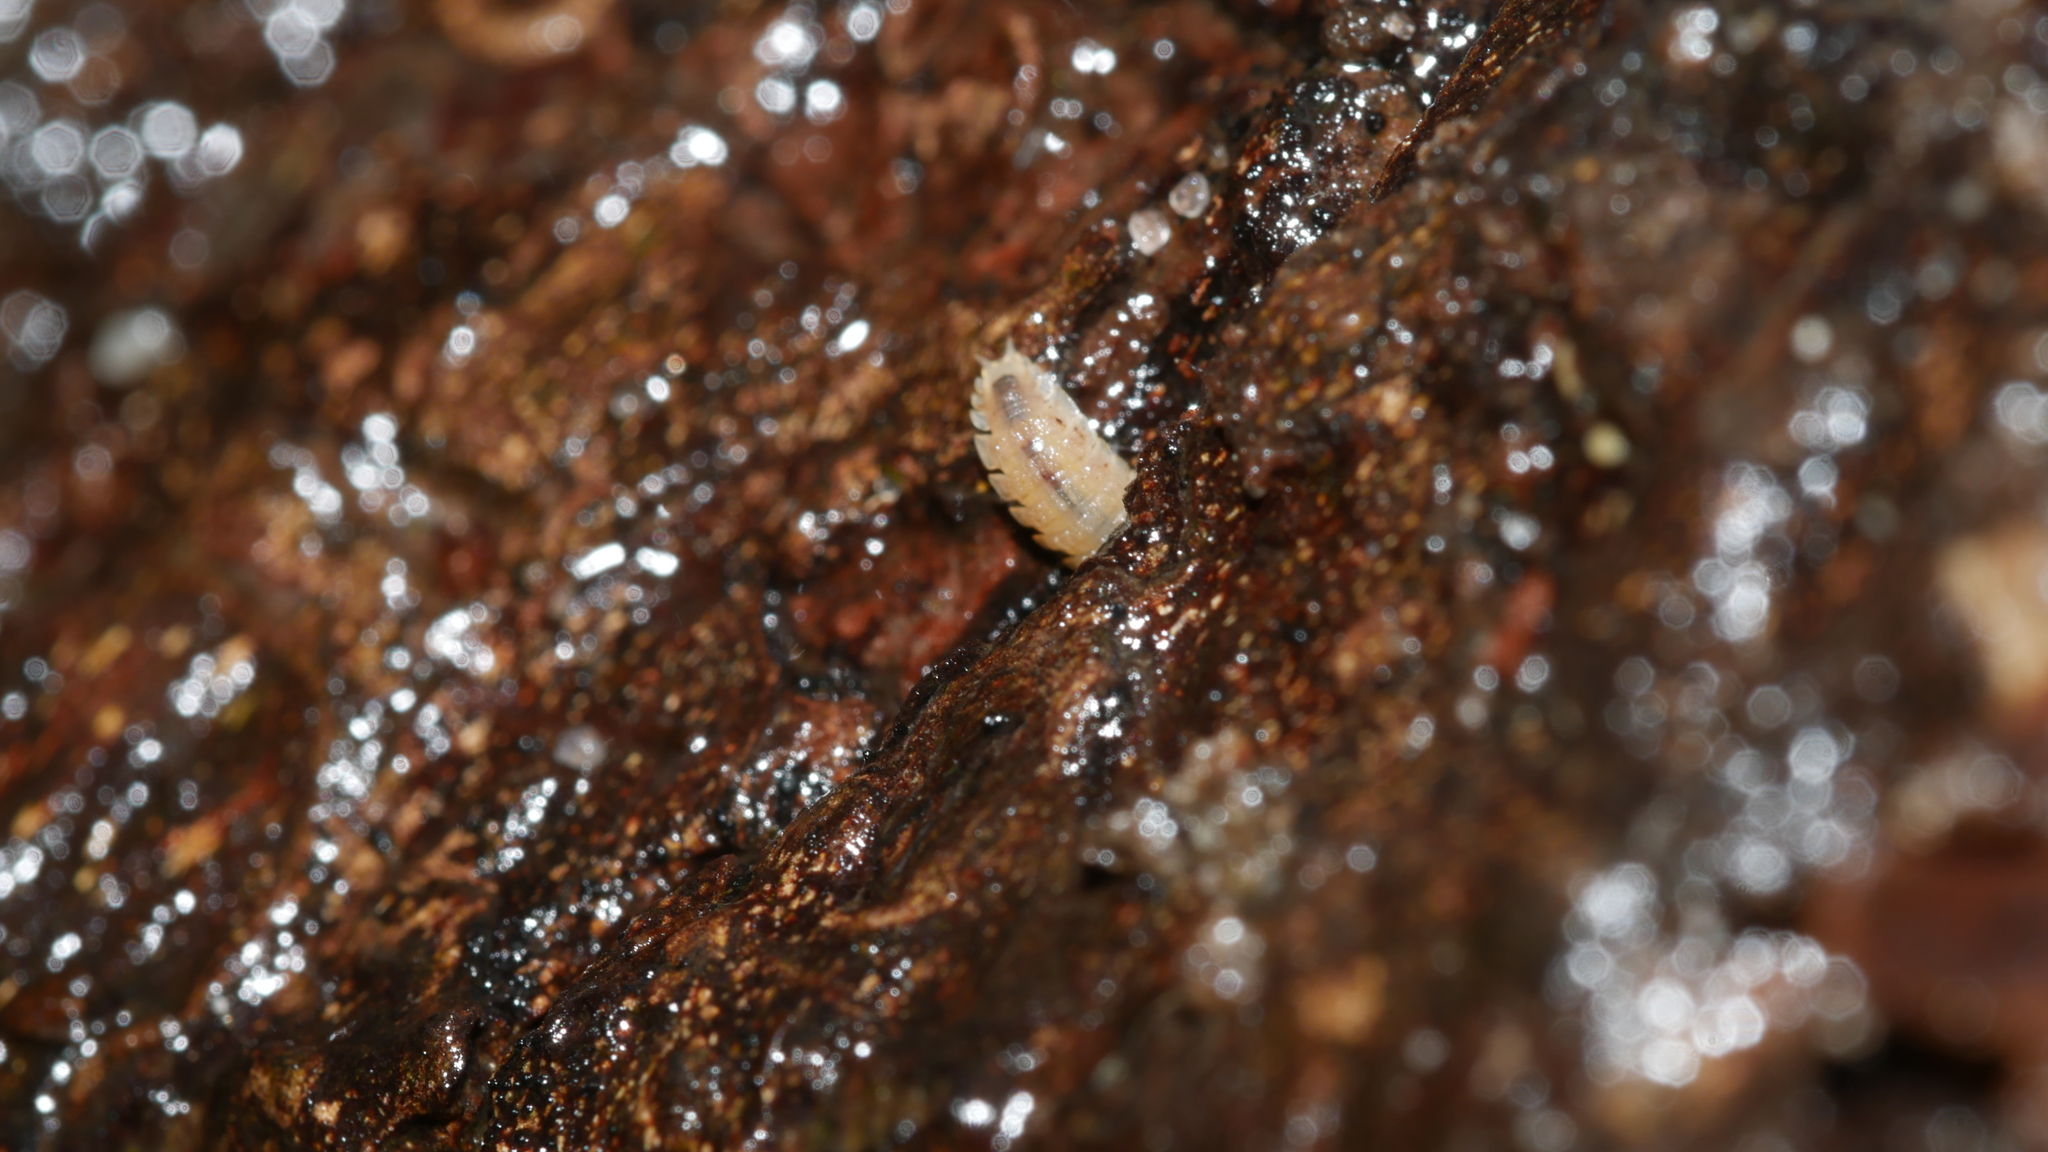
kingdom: Animalia
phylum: Arthropoda
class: Malacostraca
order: Isopoda
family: Trichoniscidae
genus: Haplophthalmus
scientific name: Haplophthalmus danicus
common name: Pillbug
